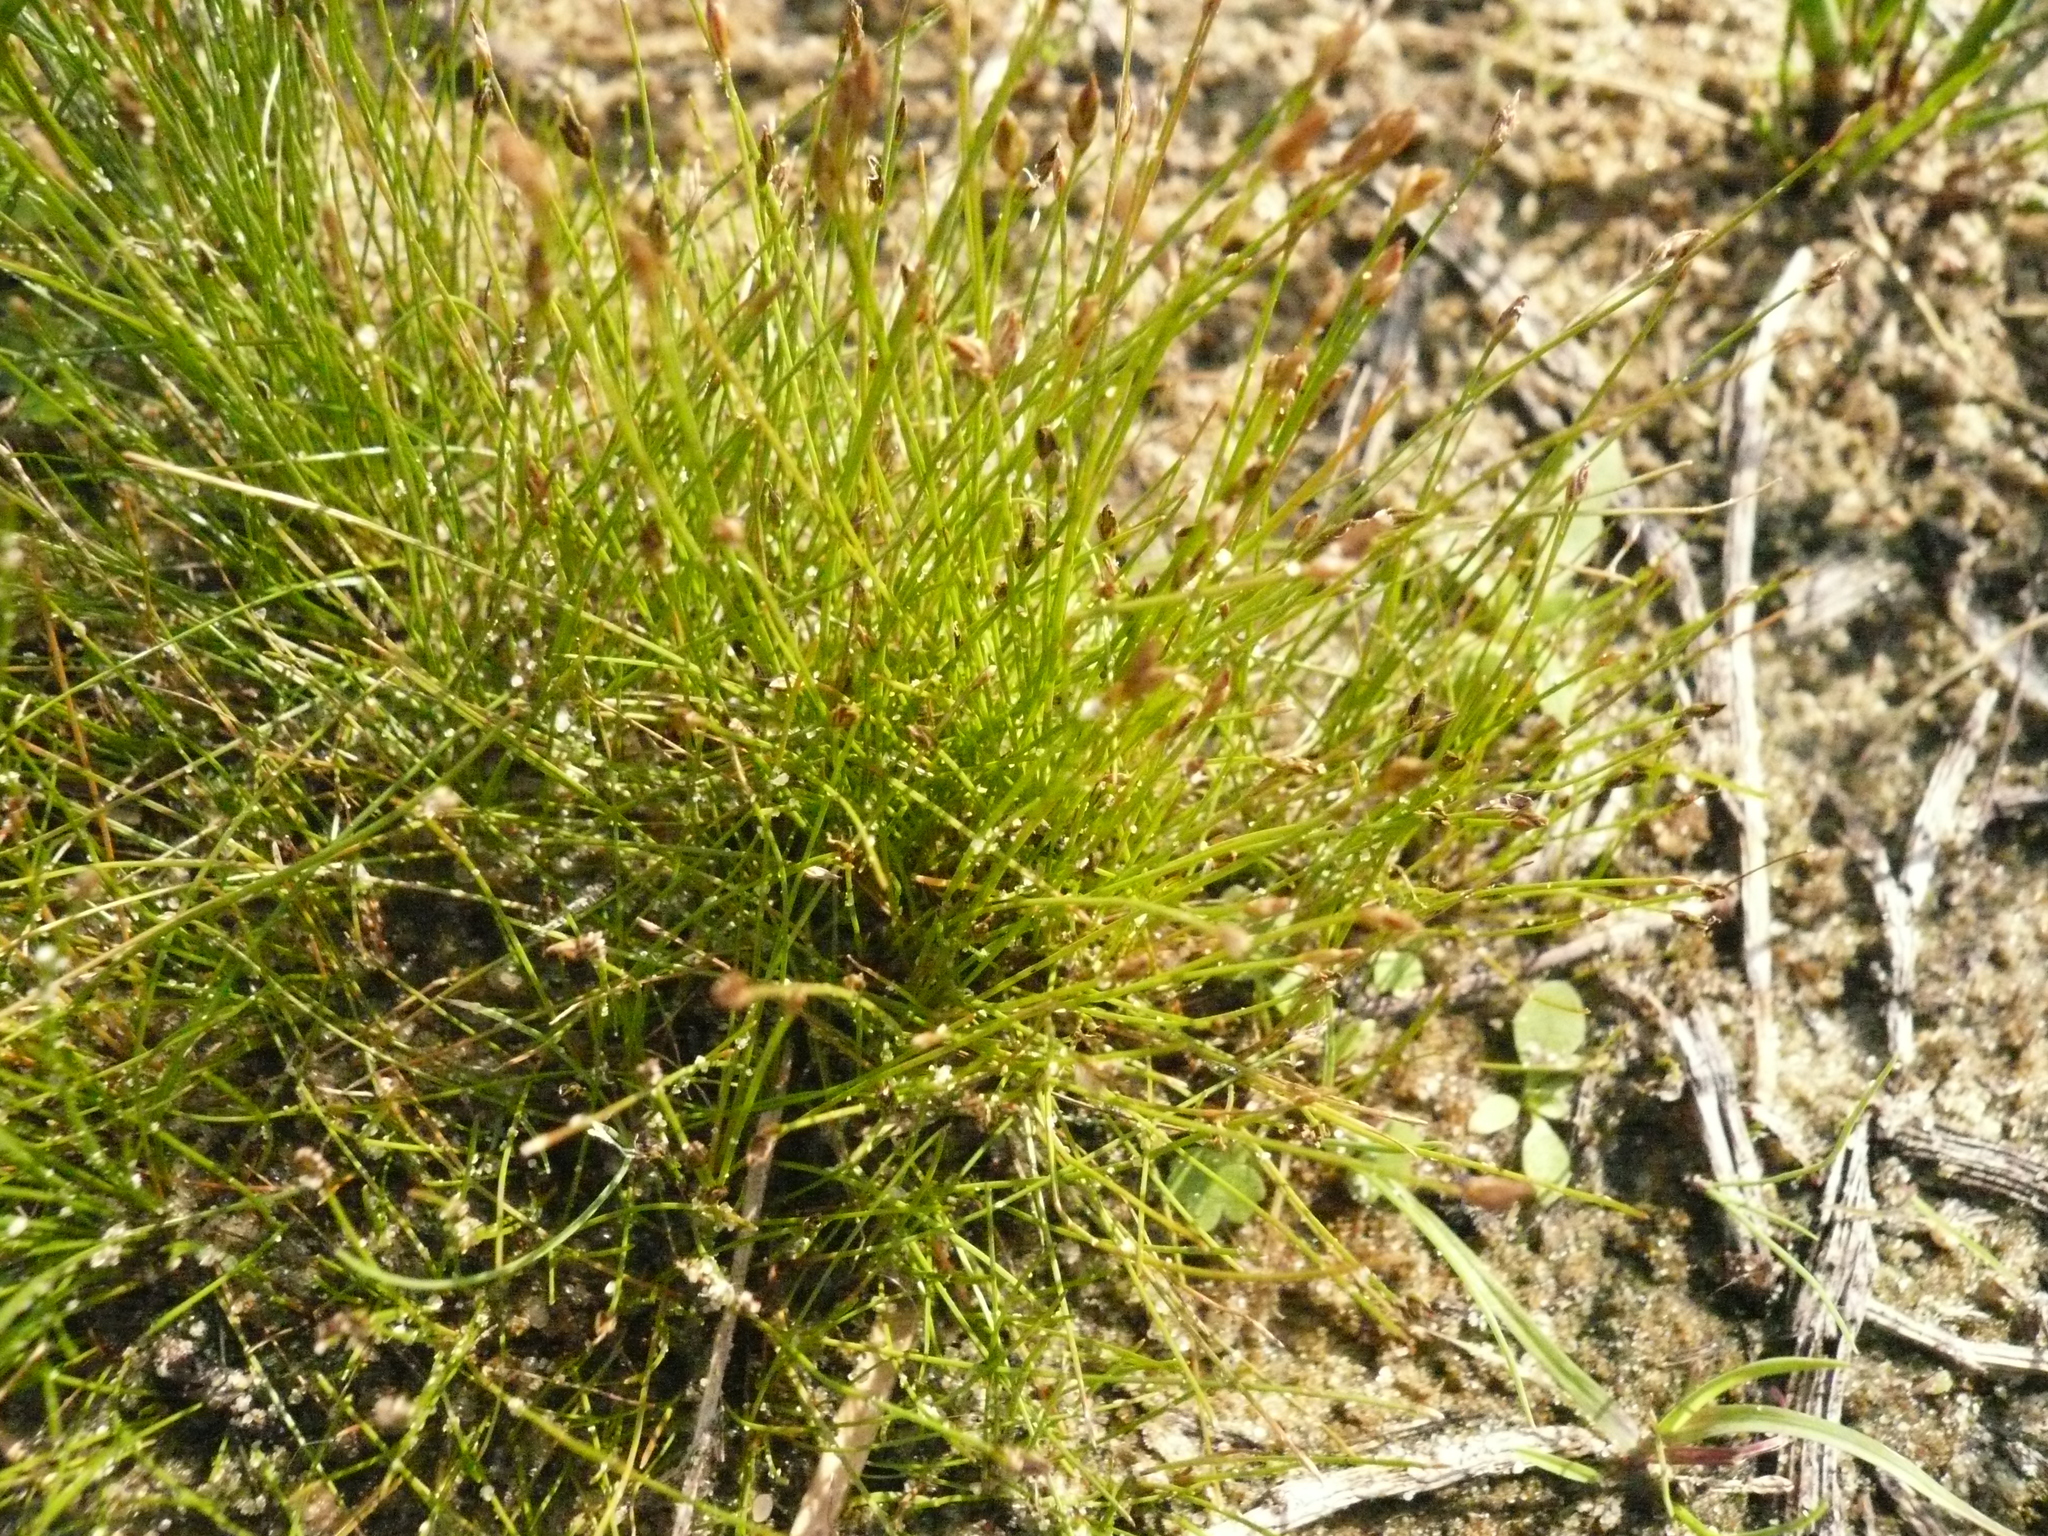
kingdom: Plantae
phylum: Tracheophyta
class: Liliopsida
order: Poales
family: Cyperaceae
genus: Eleocharis
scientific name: Eleocharis acicularis
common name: Needle spike-rush
